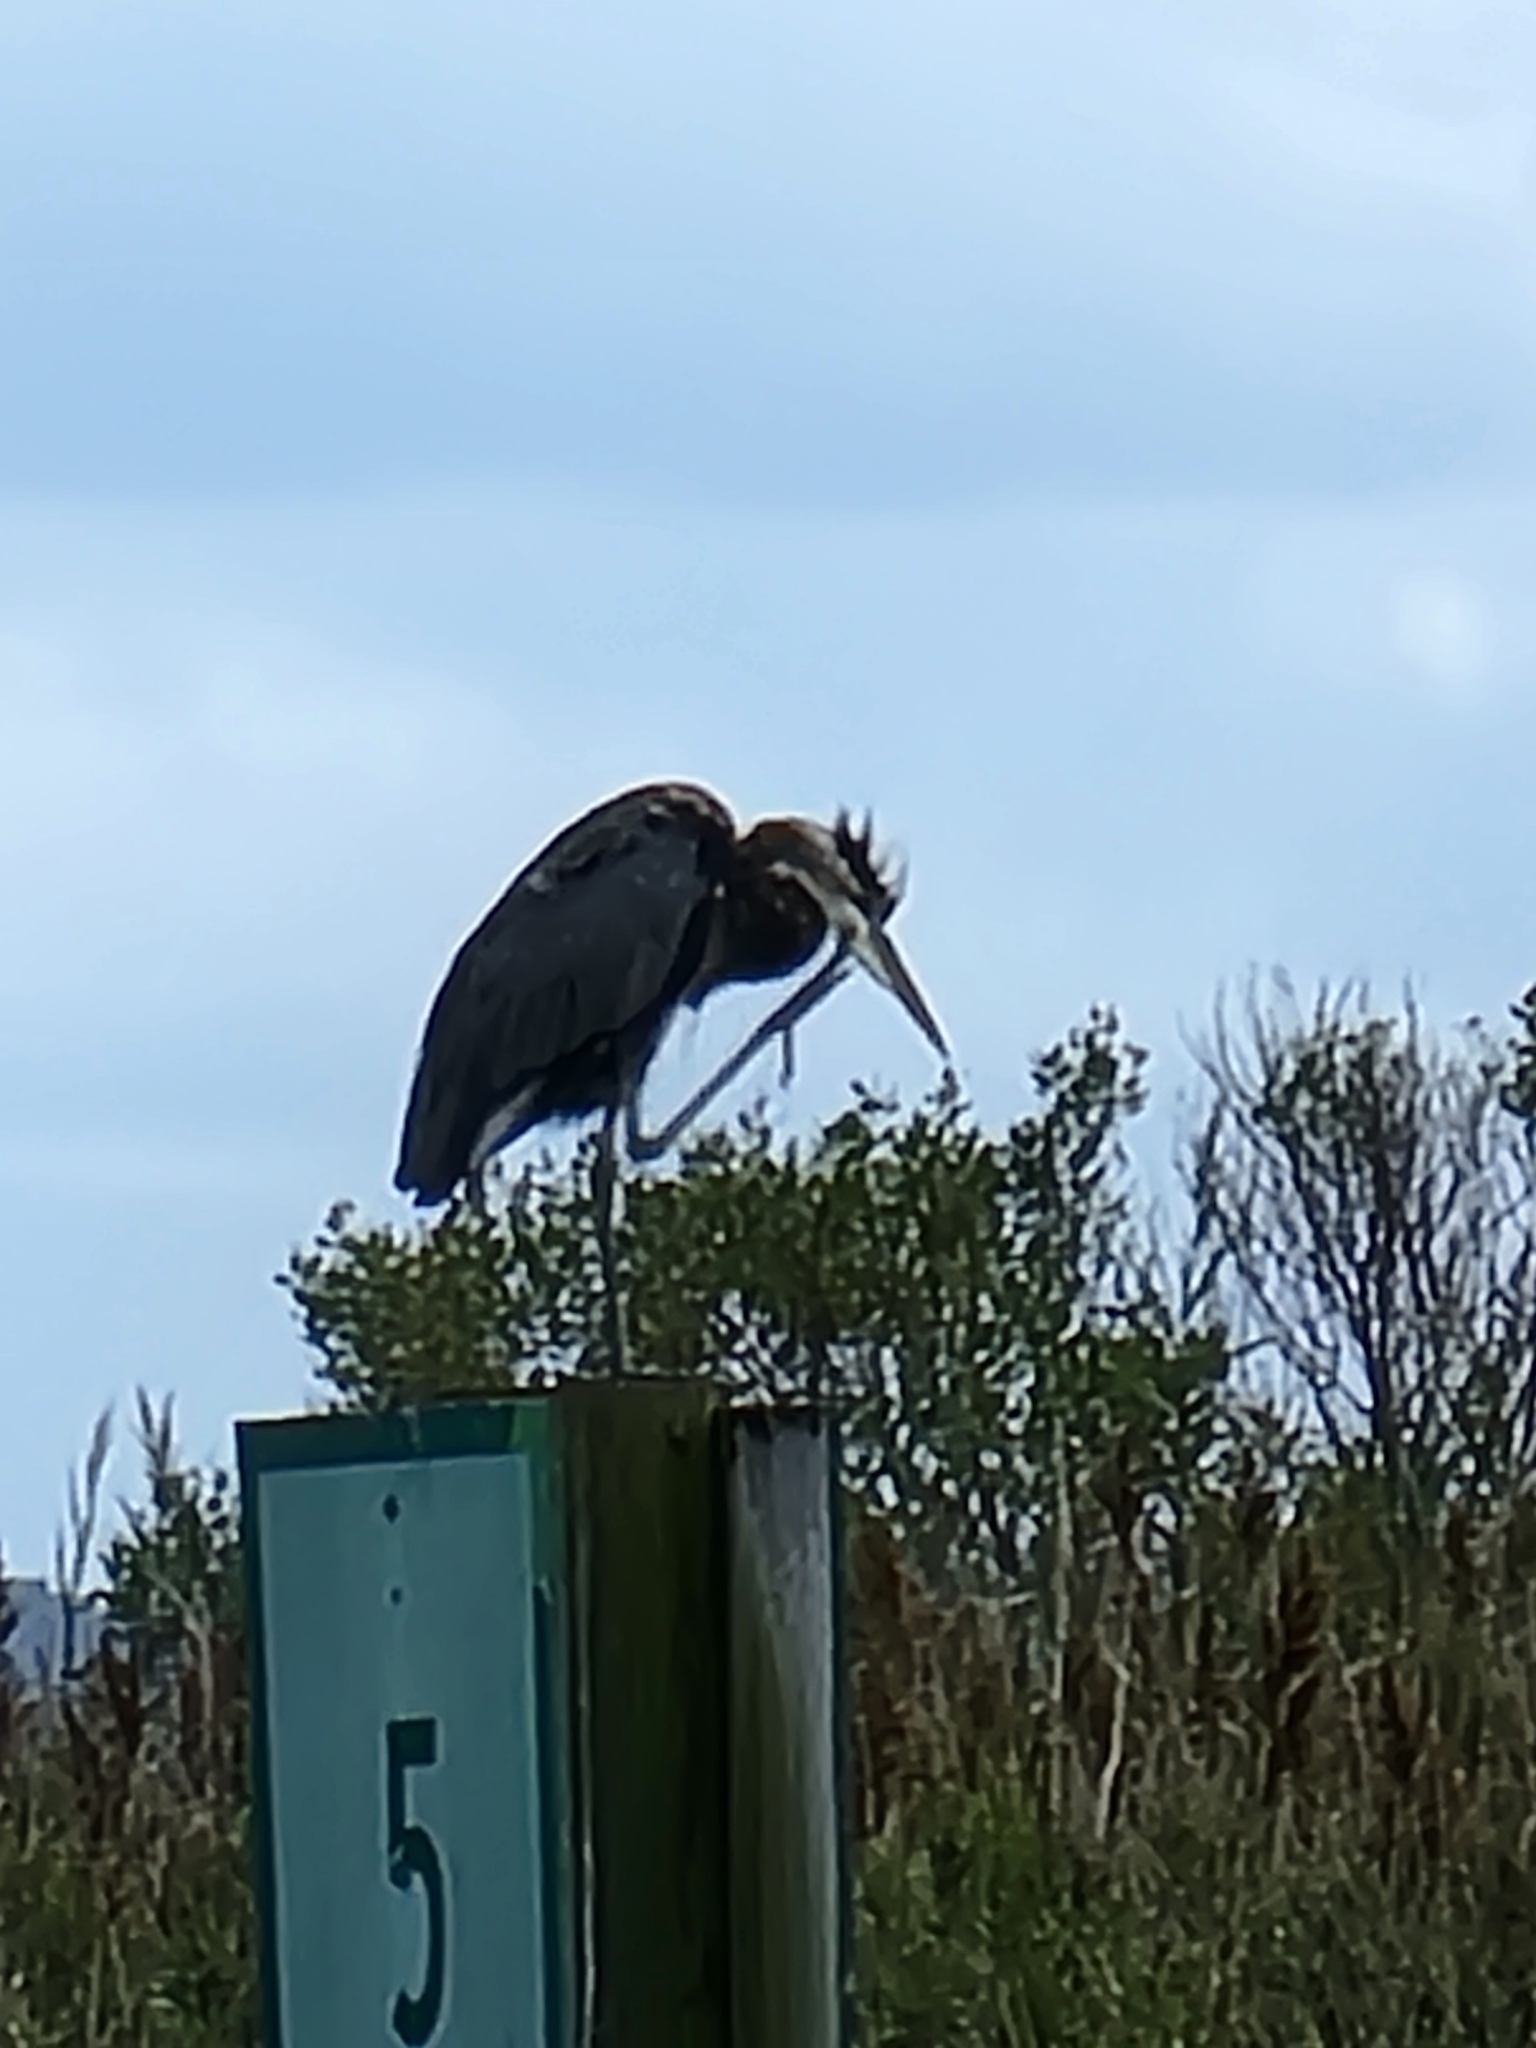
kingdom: Animalia
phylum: Chordata
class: Aves
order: Pelecaniformes
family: Ardeidae
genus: Ardea
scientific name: Ardea herodias
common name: Great blue heron
